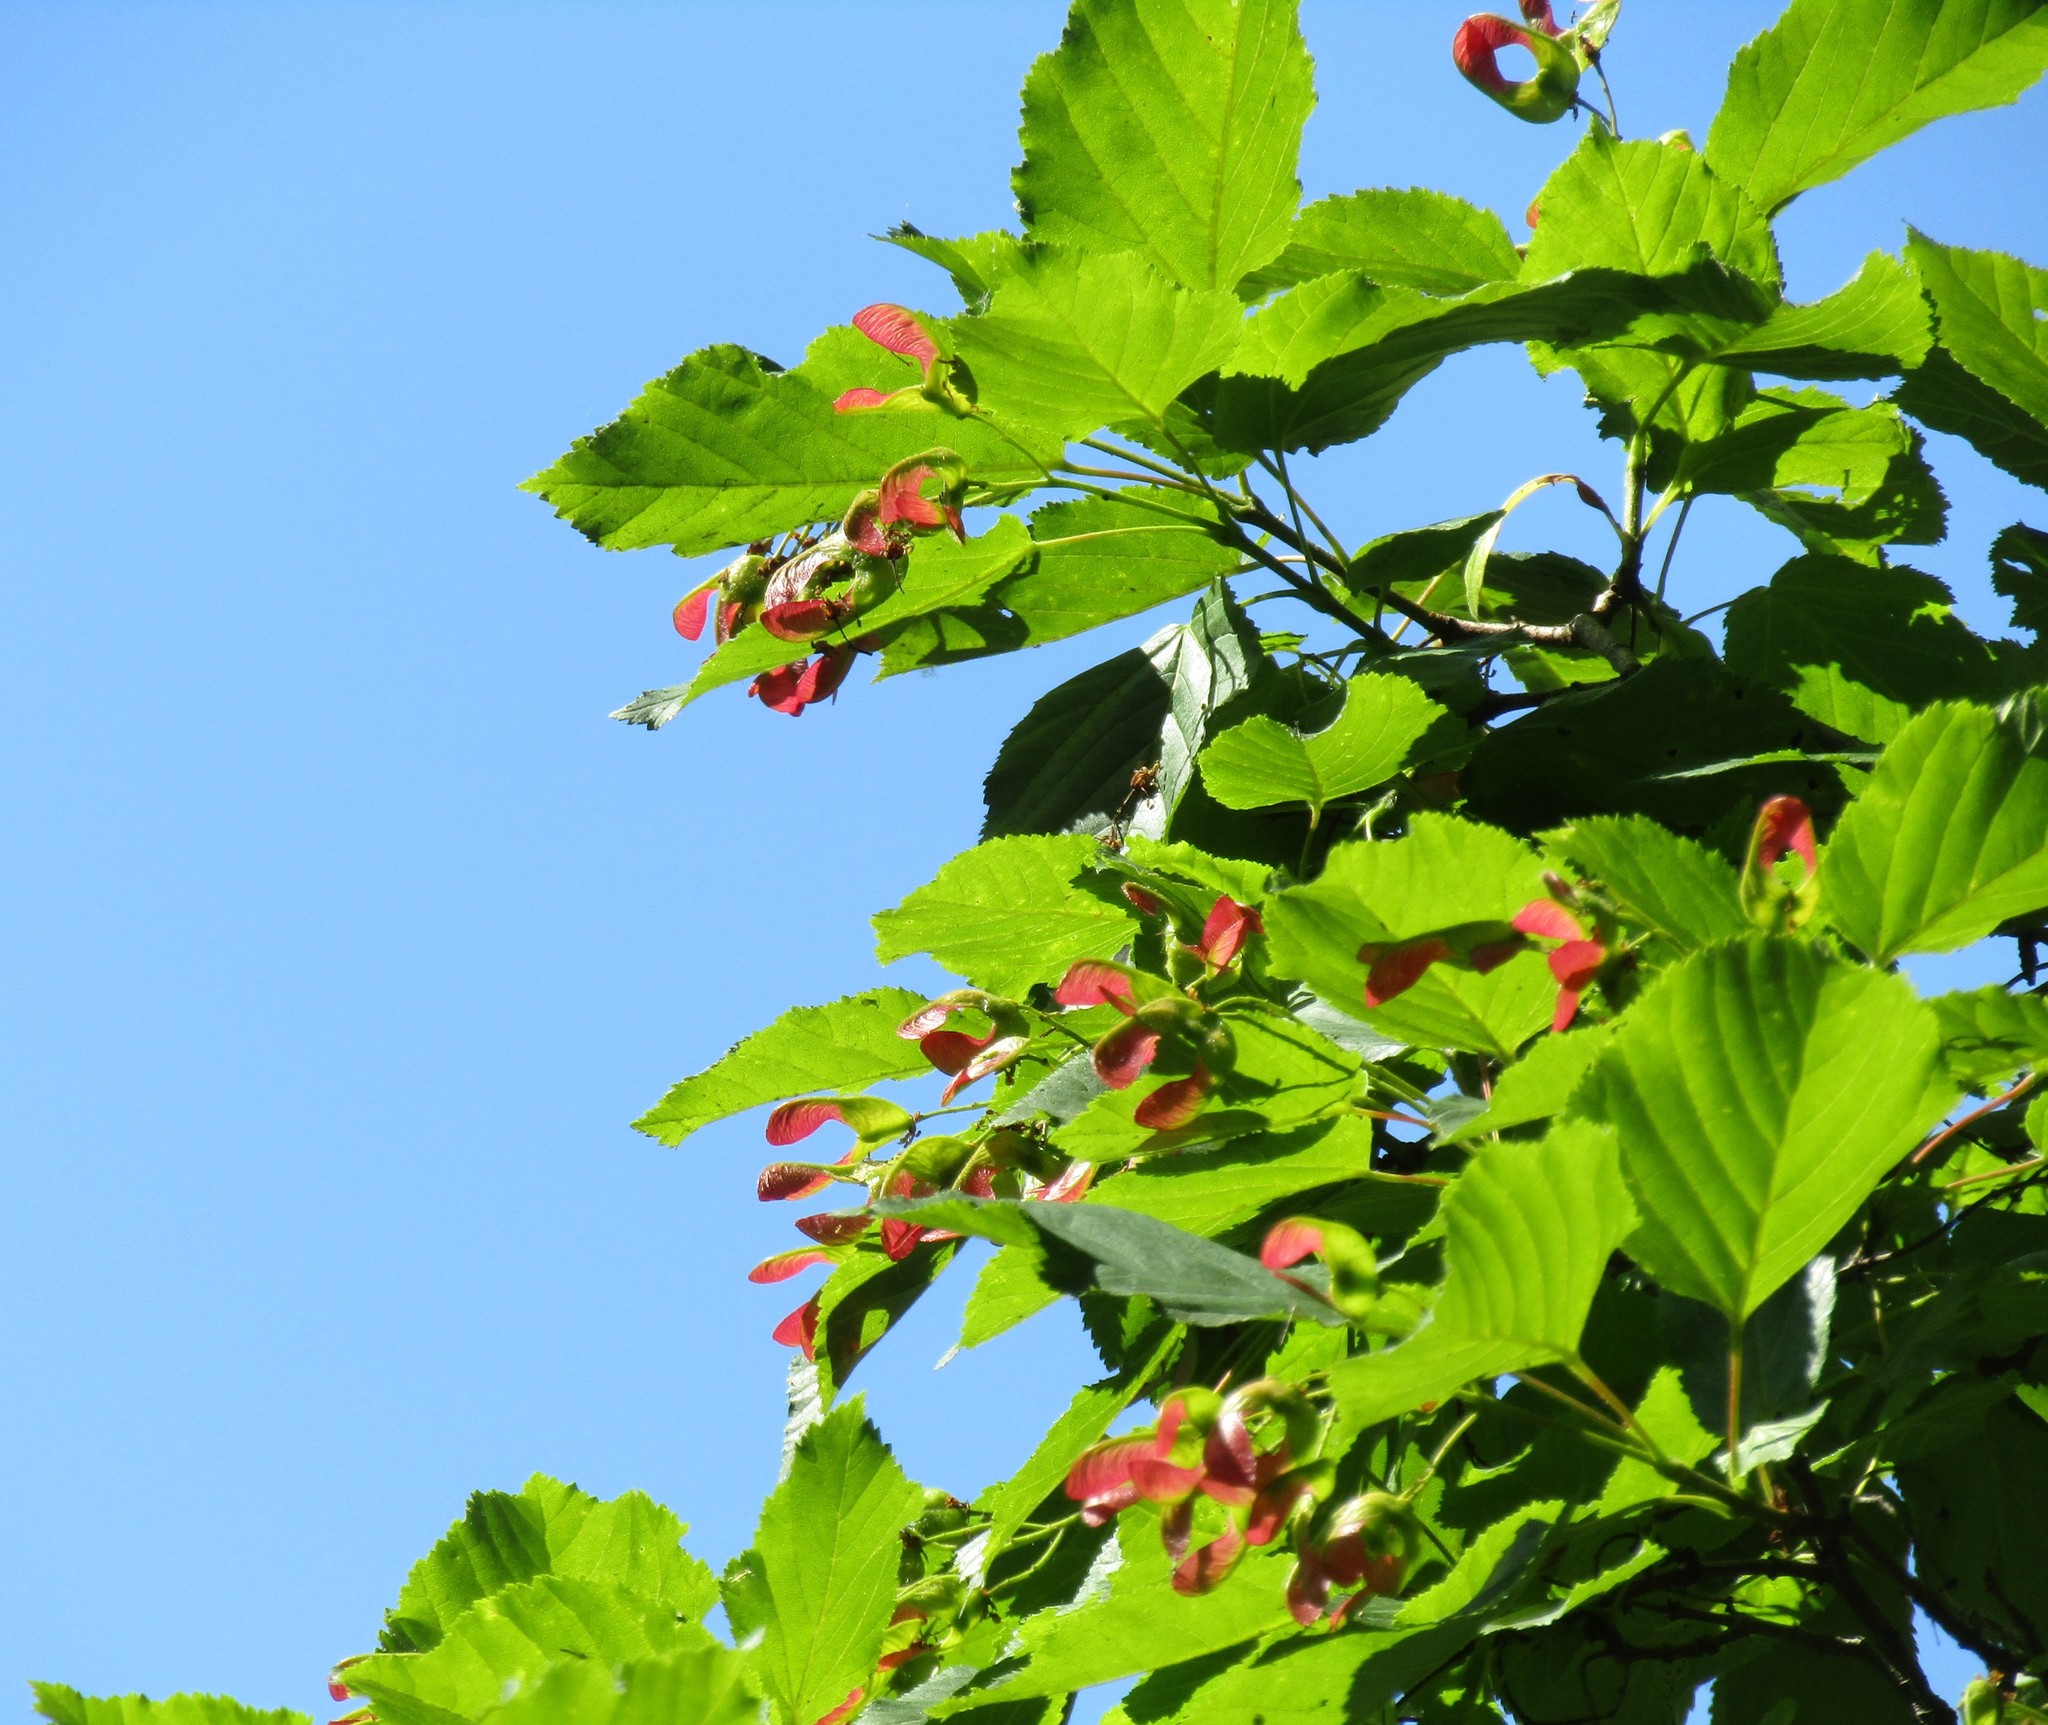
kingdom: Plantae
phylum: Tracheophyta
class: Magnoliopsida
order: Sapindales
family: Sapindaceae
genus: Acer
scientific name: Acer tataricum
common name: Tartar maple
